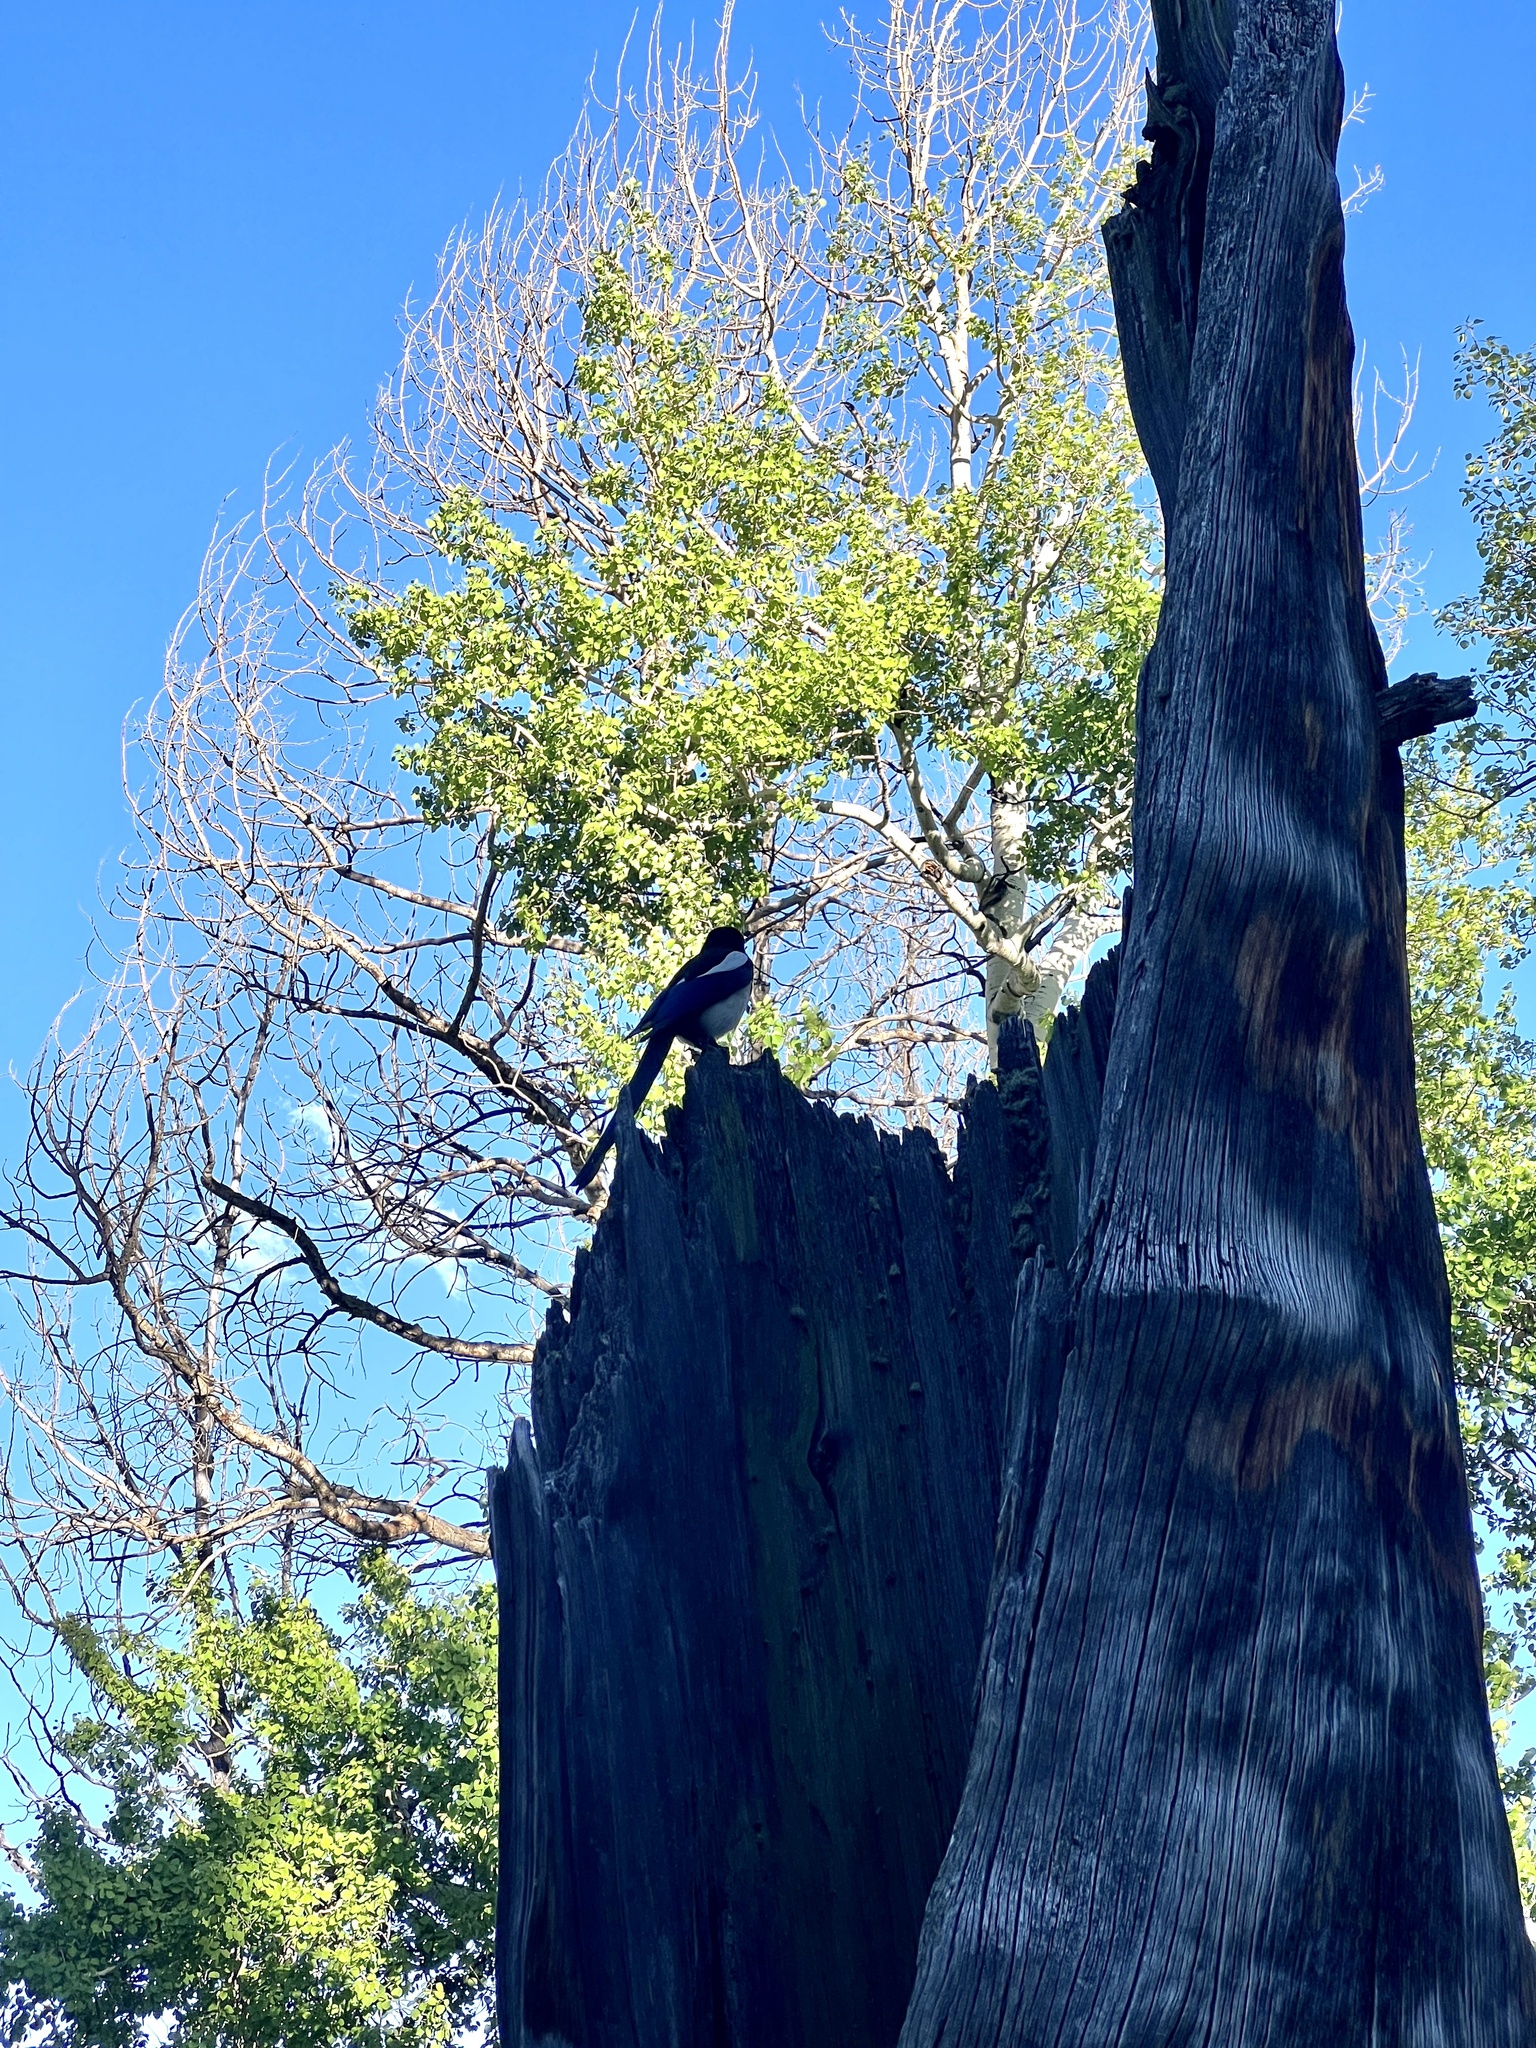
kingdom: Animalia
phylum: Chordata
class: Aves
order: Passeriformes
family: Corvidae
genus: Pica
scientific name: Pica hudsonia
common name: Black-billed magpie
